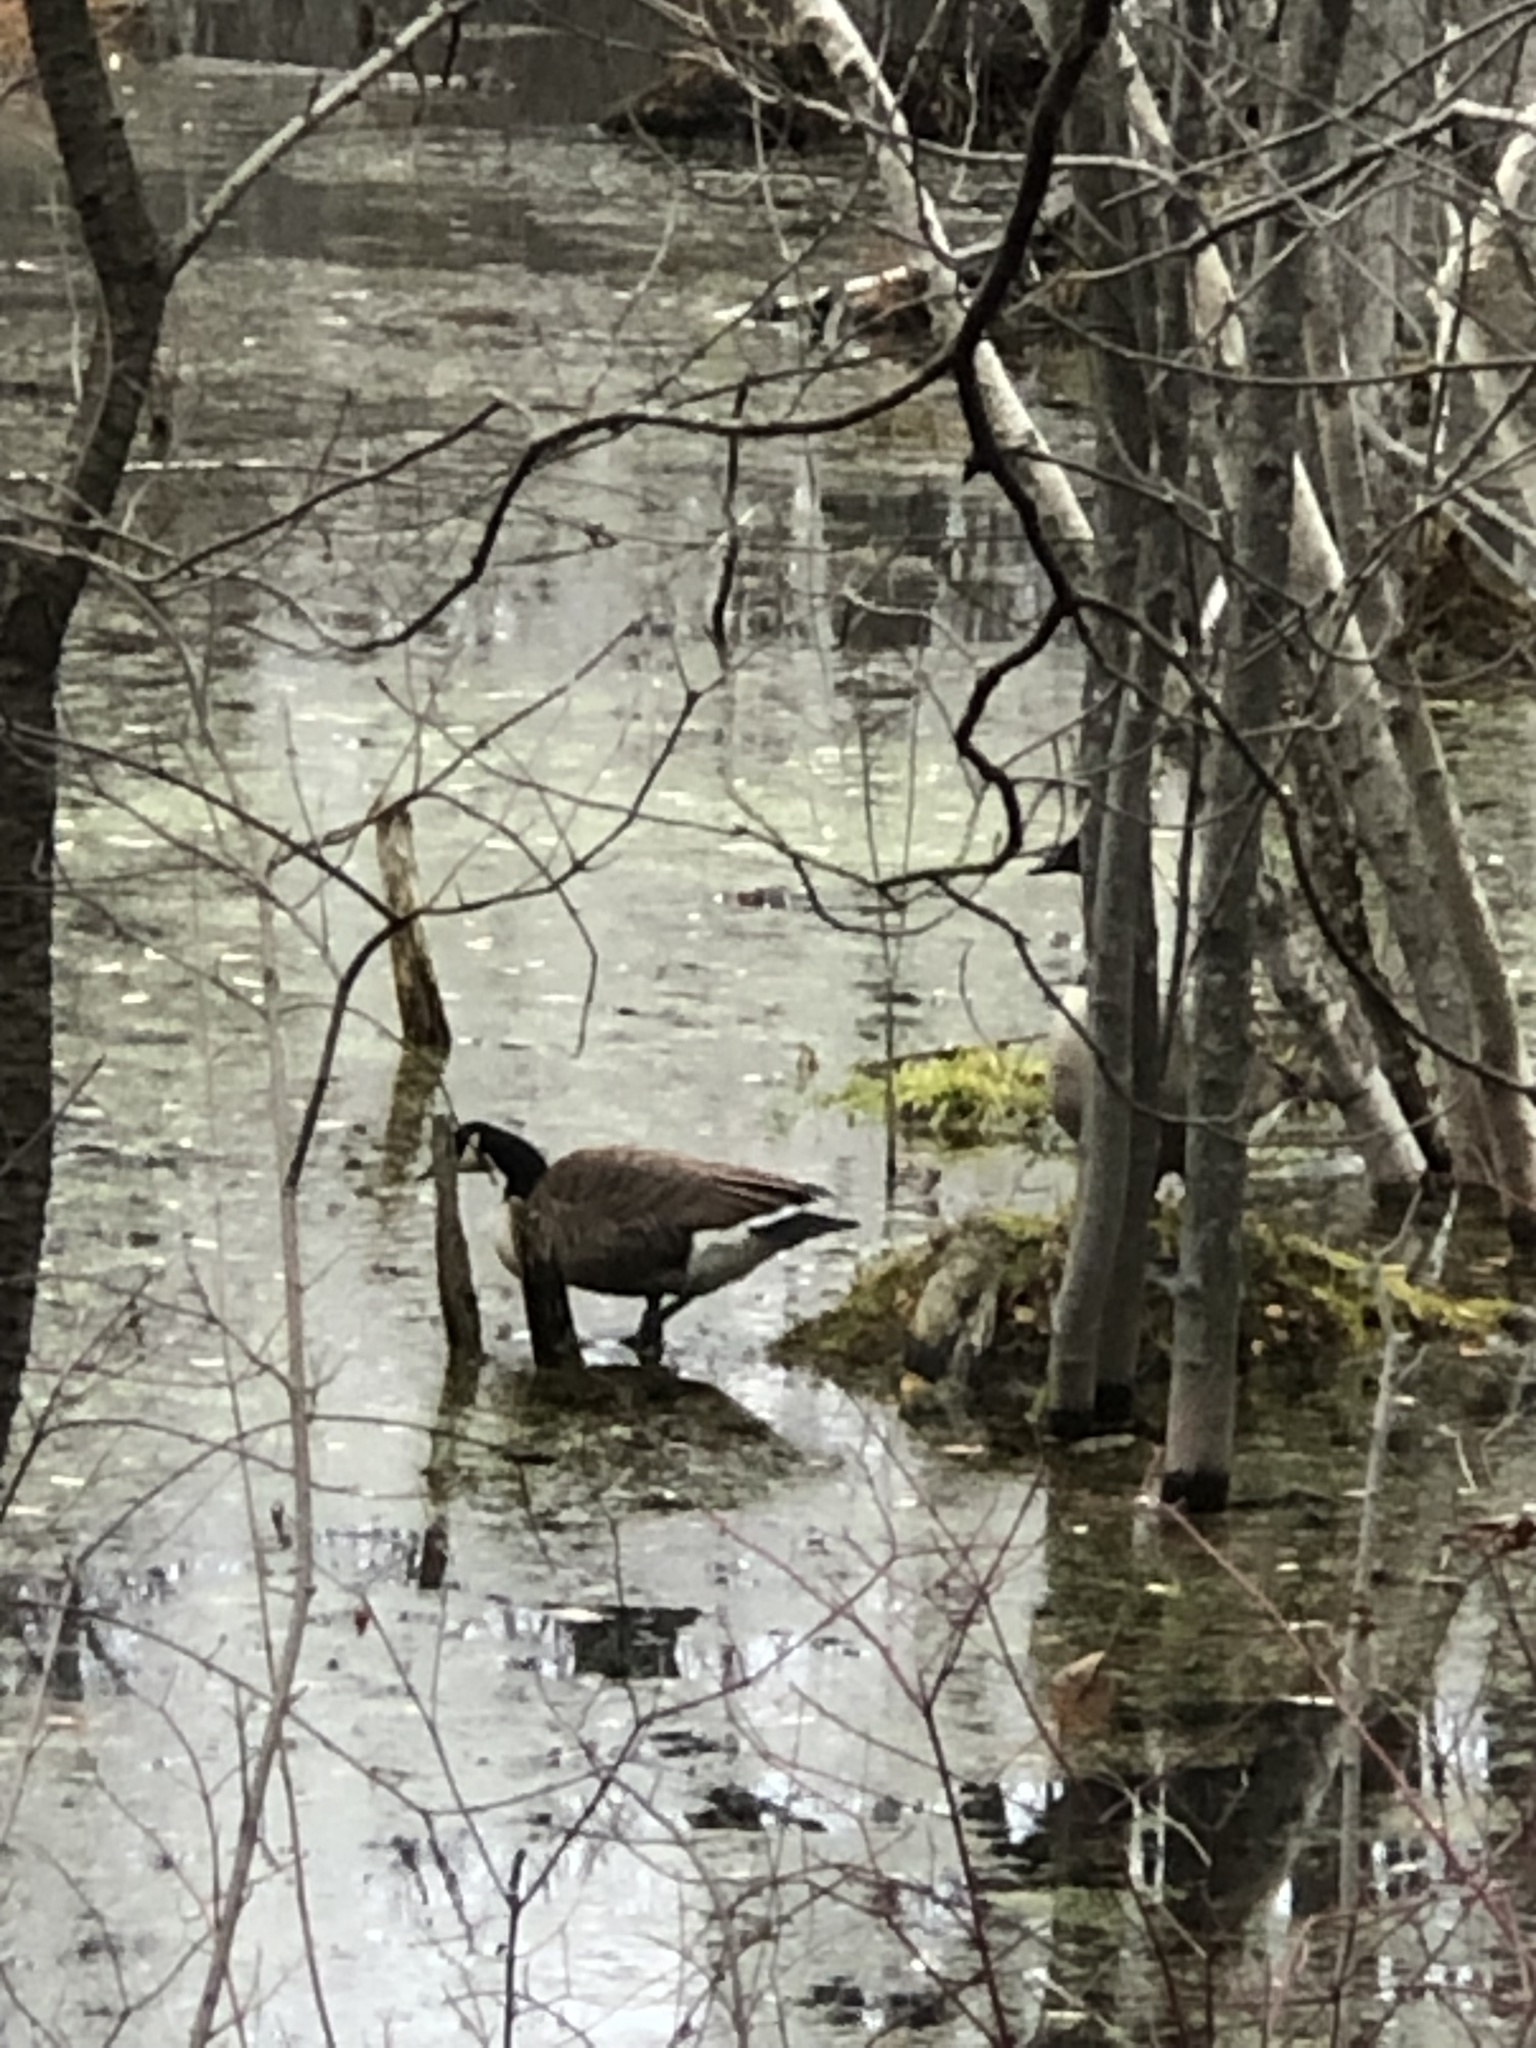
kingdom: Animalia
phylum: Chordata
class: Aves
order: Anseriformes
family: Anatidae
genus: Branta
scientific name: Branta canadensis
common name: Canada goose
